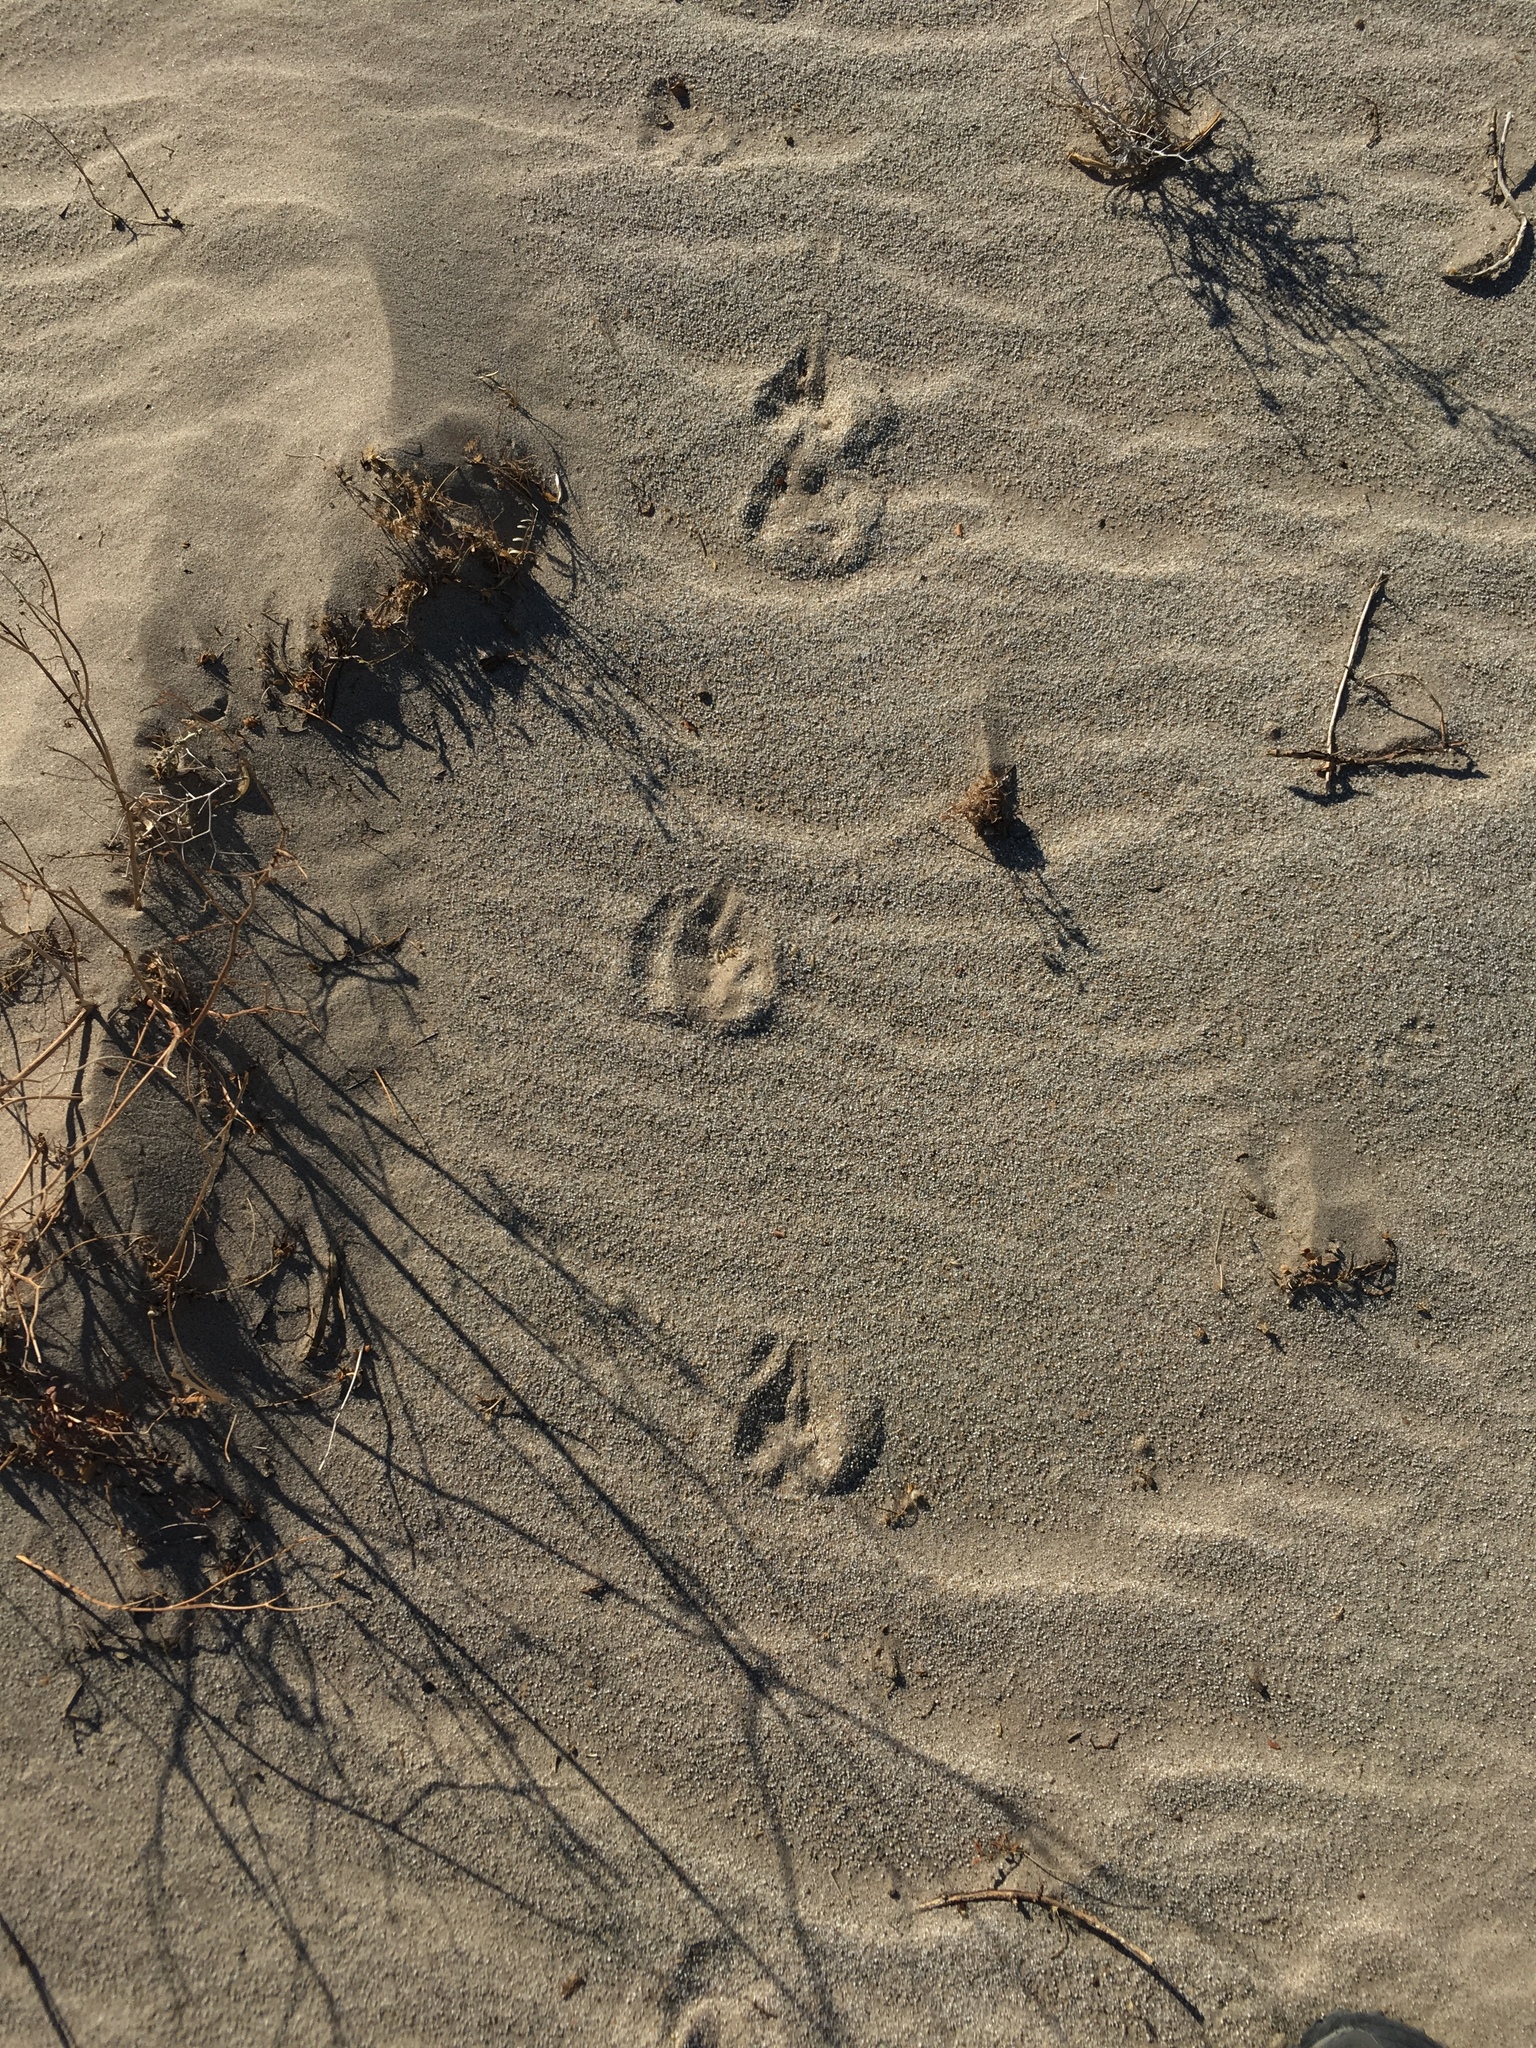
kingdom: Animalia
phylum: Chordata
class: Mammalia
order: Carnivora
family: Canidae
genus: Canis
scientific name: Canis latrans
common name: Coyote
